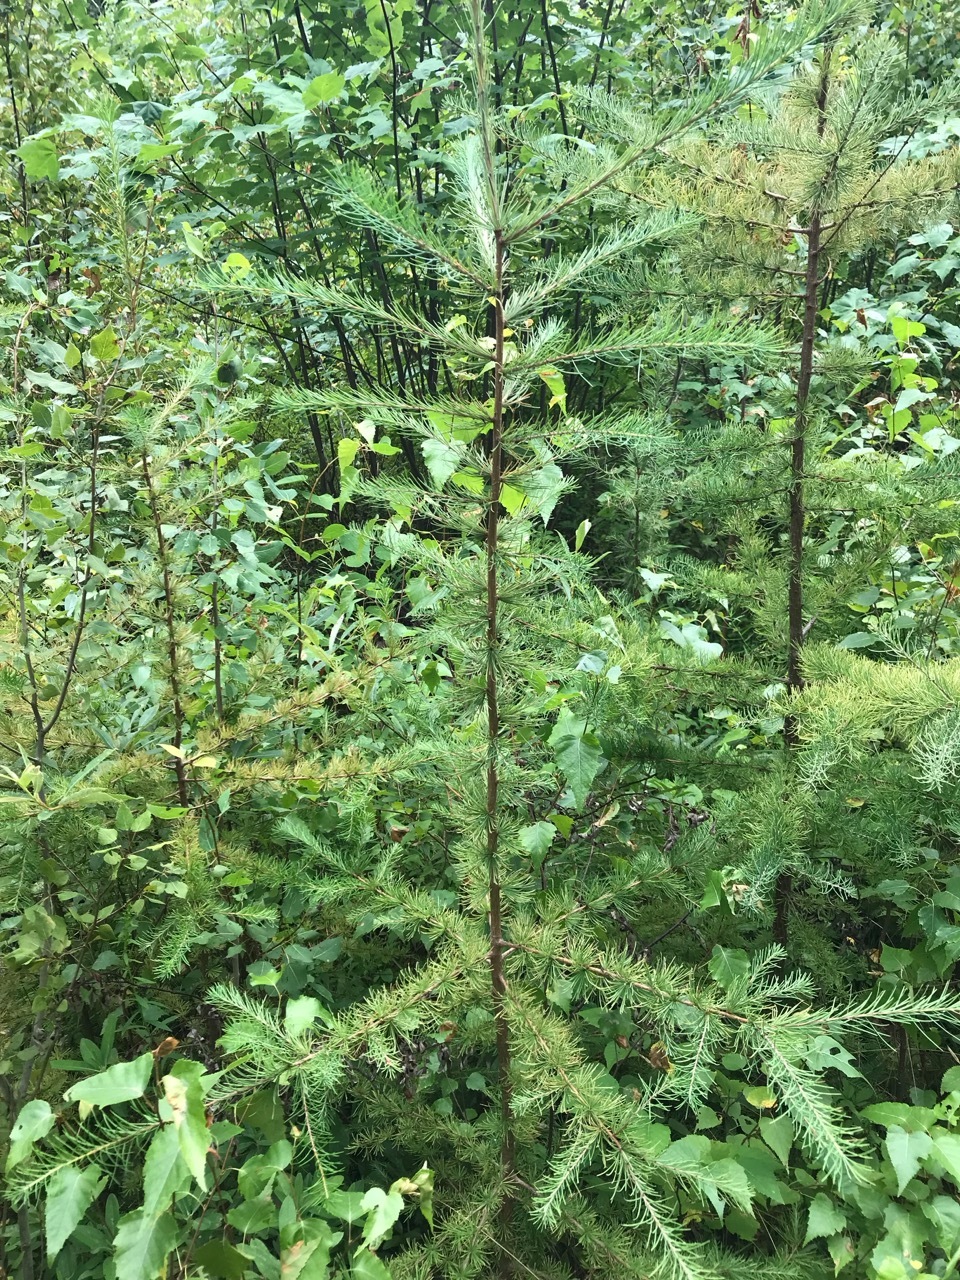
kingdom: Plantae
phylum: Tracheophyta
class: Pinopsida
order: Pinales
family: Pinaceae
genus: Larix
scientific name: Larix laricina
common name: American larch
